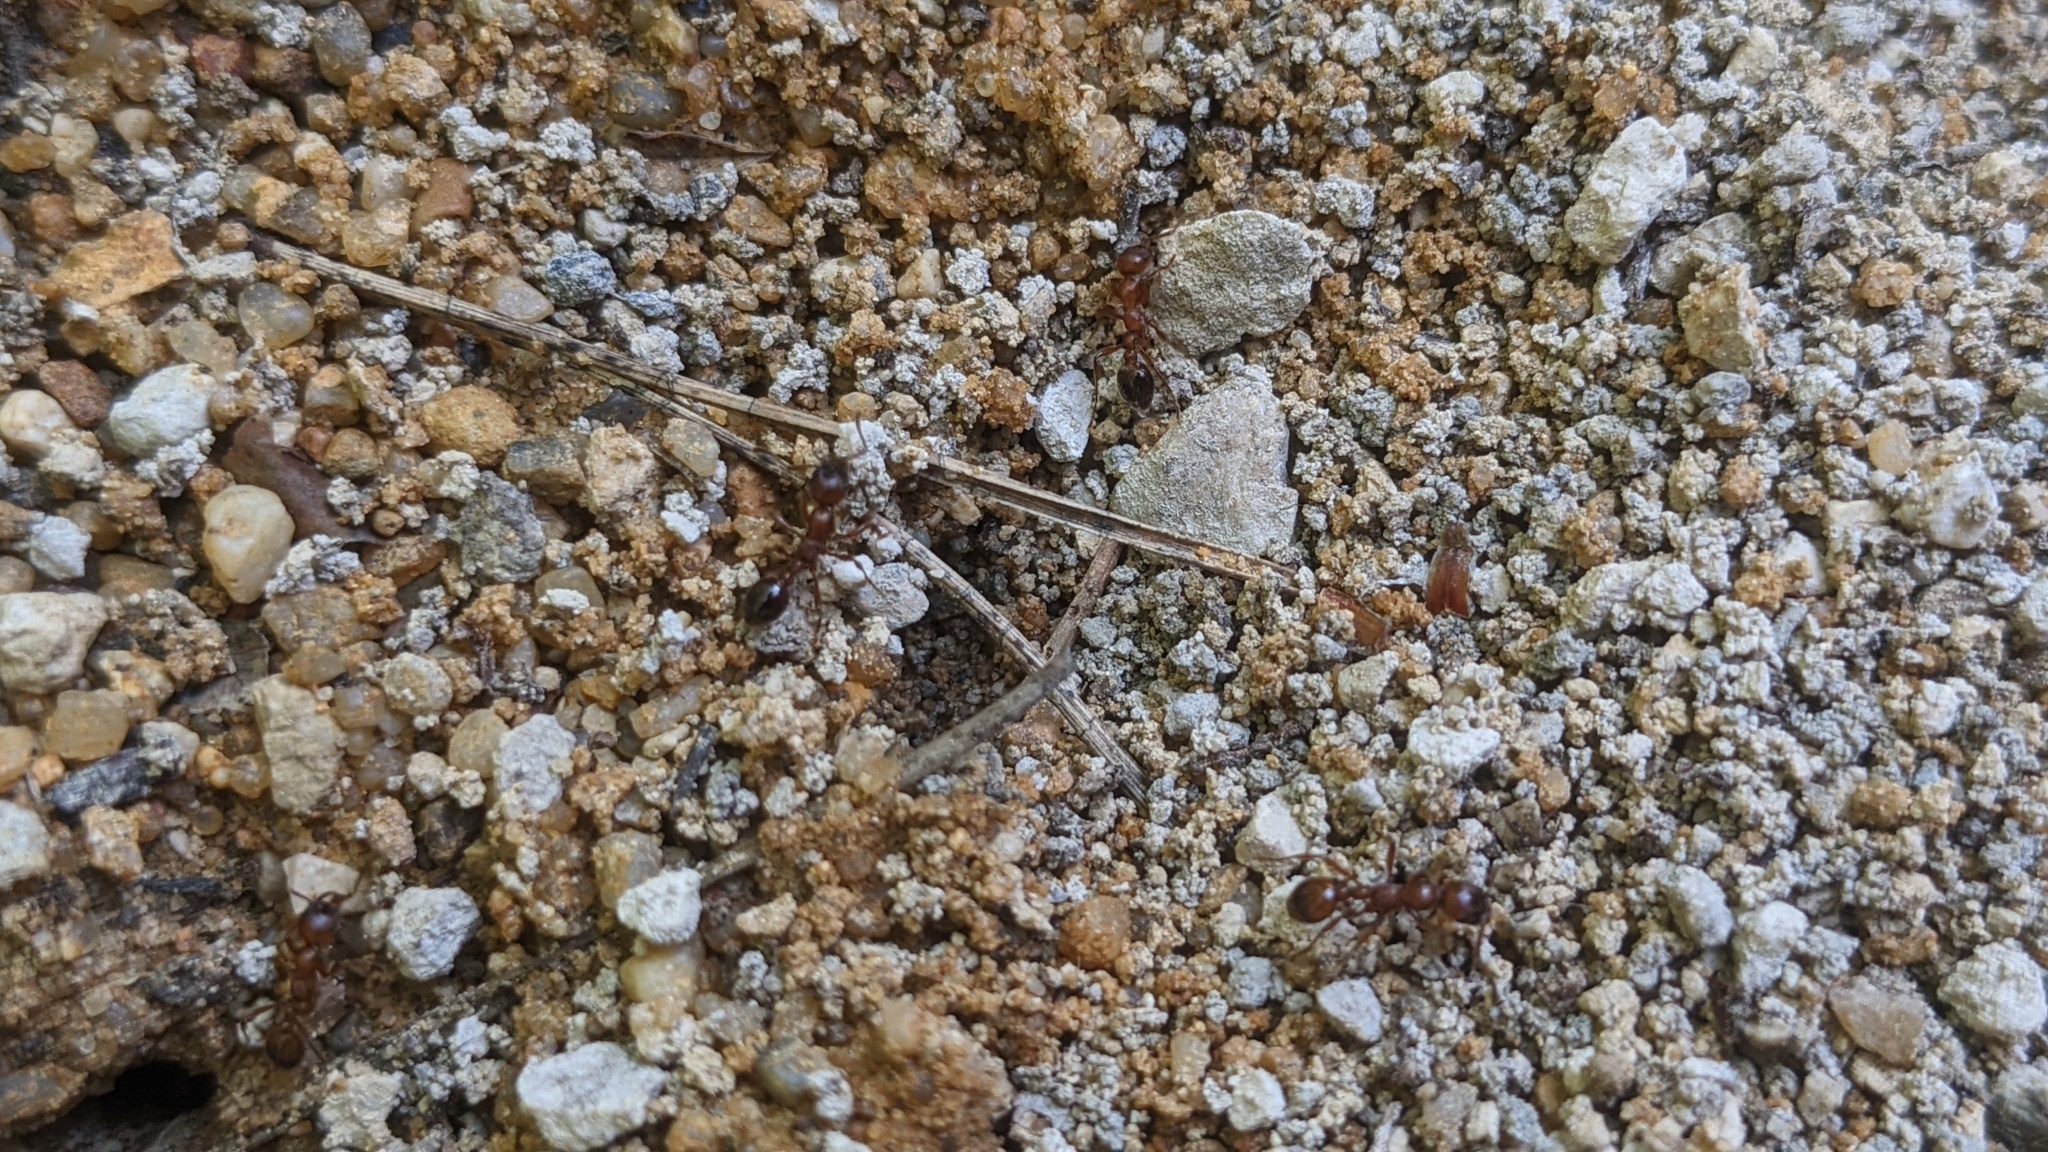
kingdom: Animalia
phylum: Arthropoda
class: Insecta
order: Hymenoptera
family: Formicidae
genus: Manica
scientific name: Manica rubida
